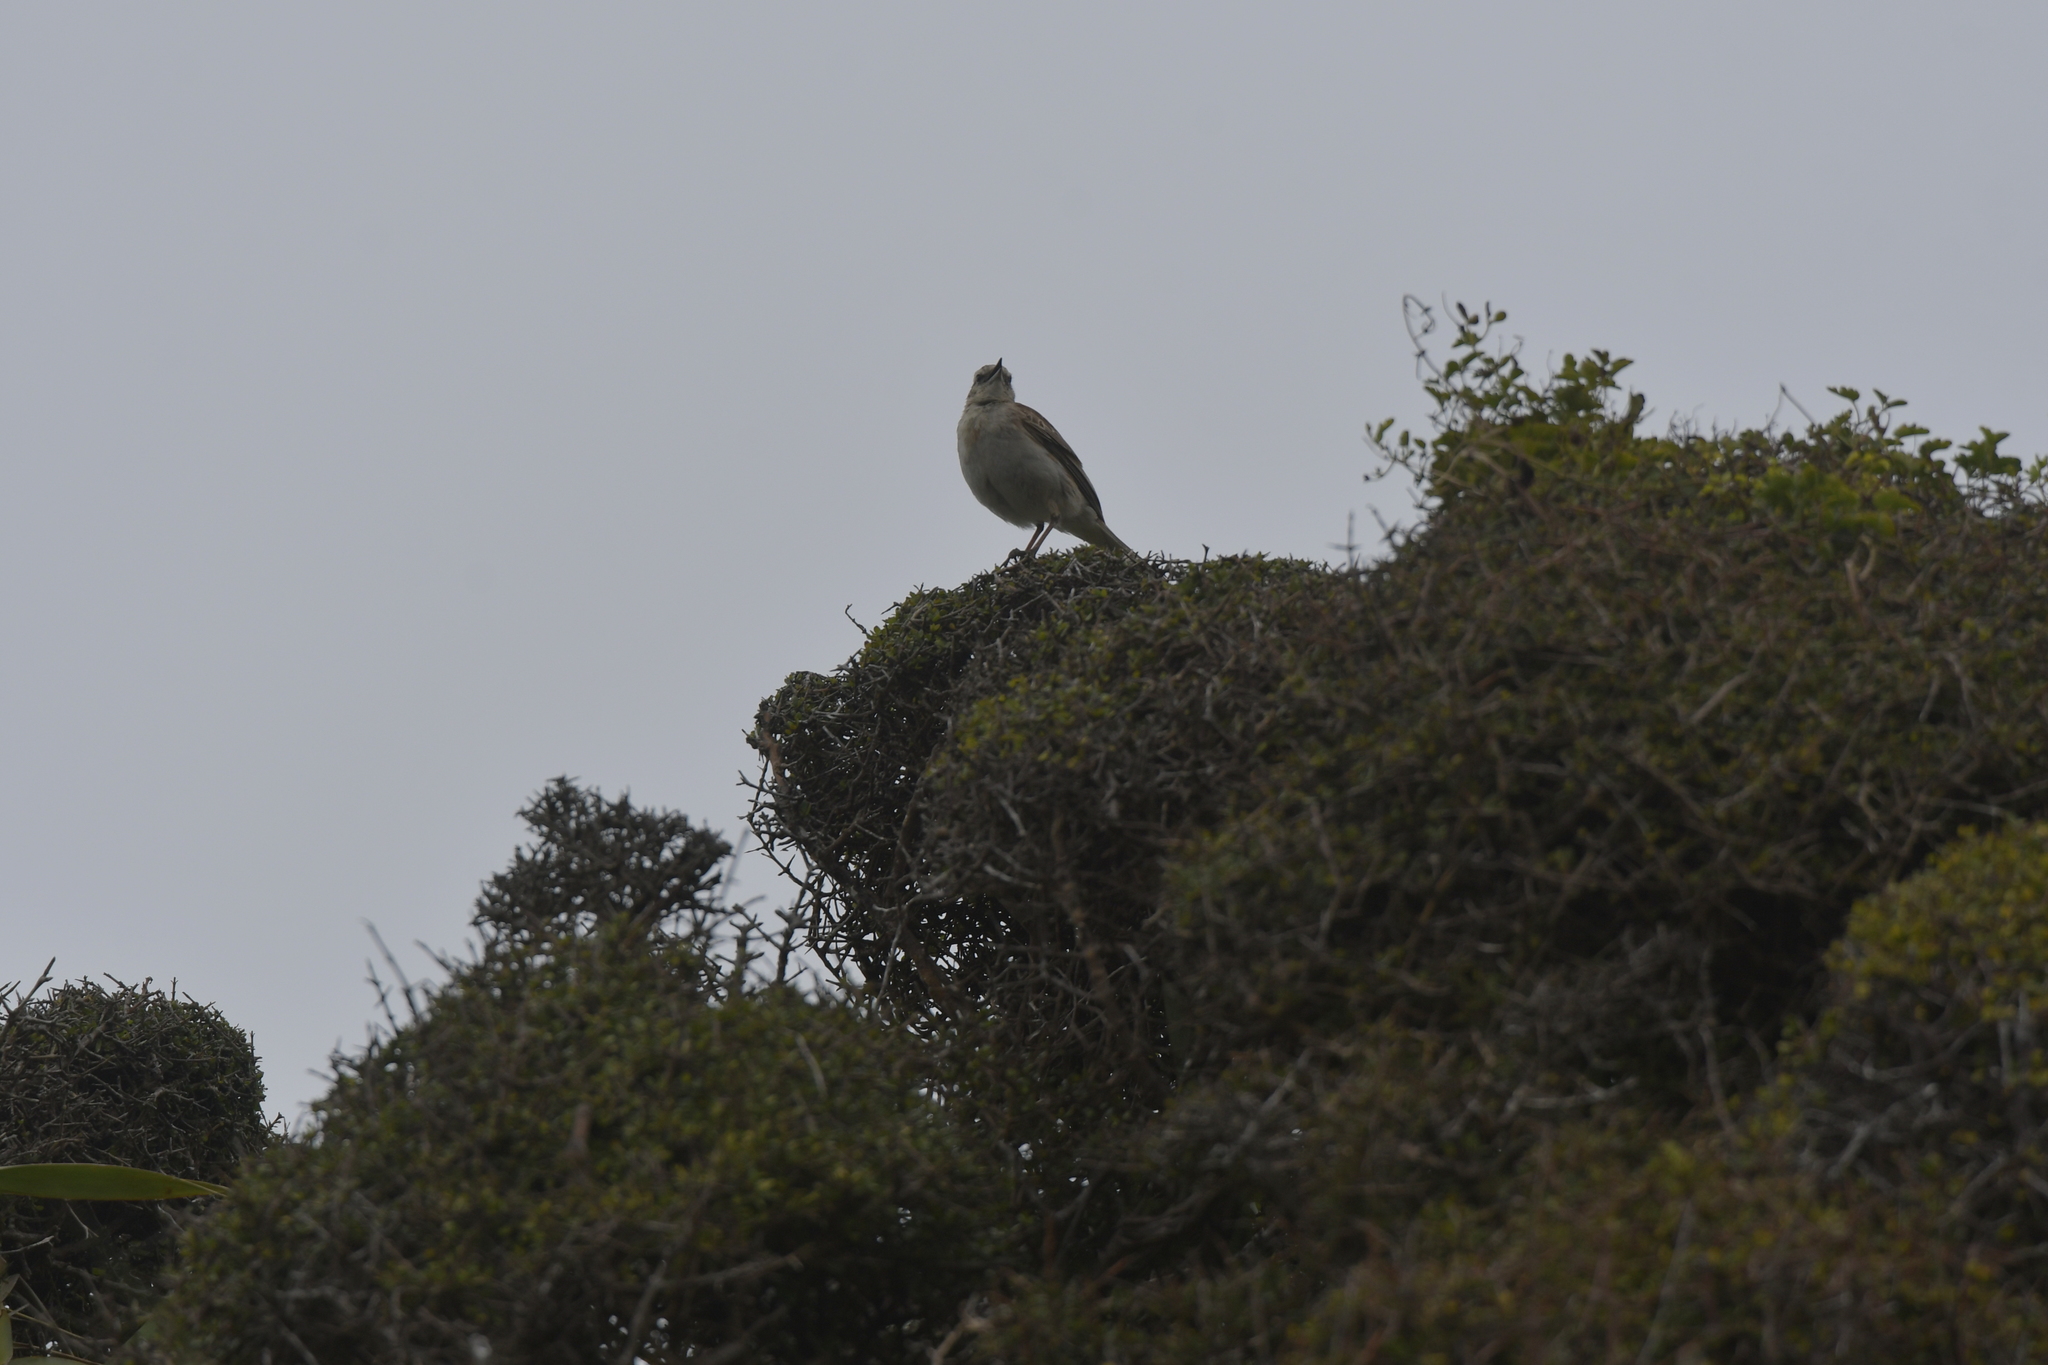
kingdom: Animalia
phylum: Chordata
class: Aves
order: Passeriformes
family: Motacillidae
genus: Anthus
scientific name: Anthus novaeseelandiae
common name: New zealand pipit
